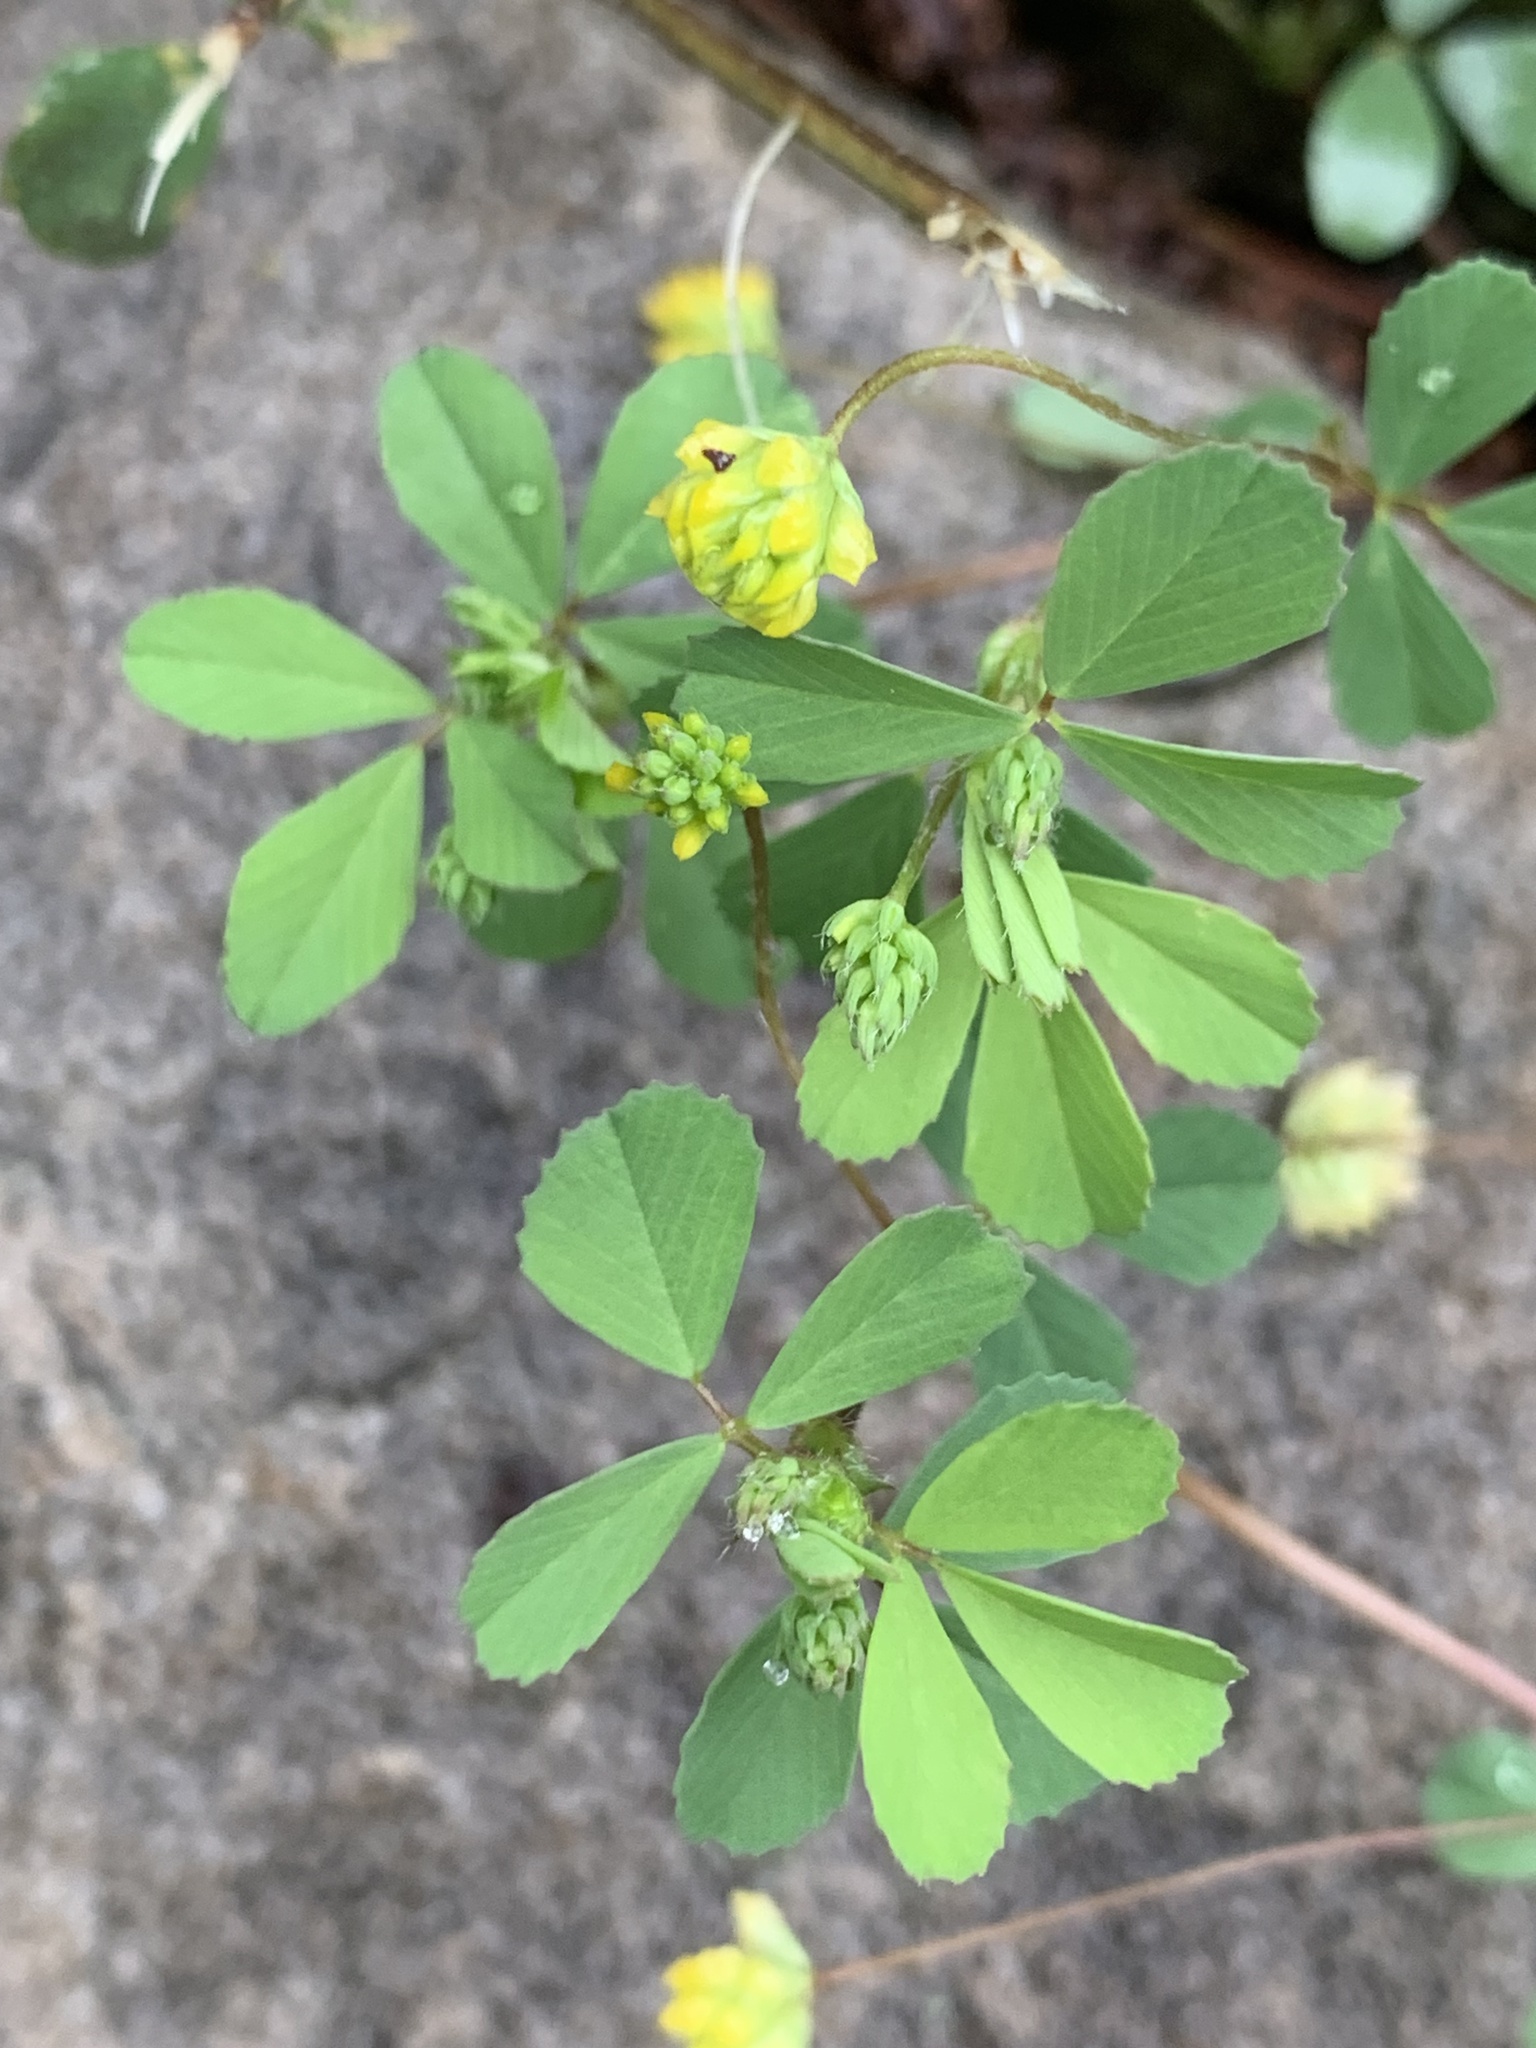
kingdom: Plantae
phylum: Tracheophyta
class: Magnoliopsida
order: Fabales
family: Fabaceae
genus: Trifolium
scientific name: Trifolium dubium
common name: Suckling clover
